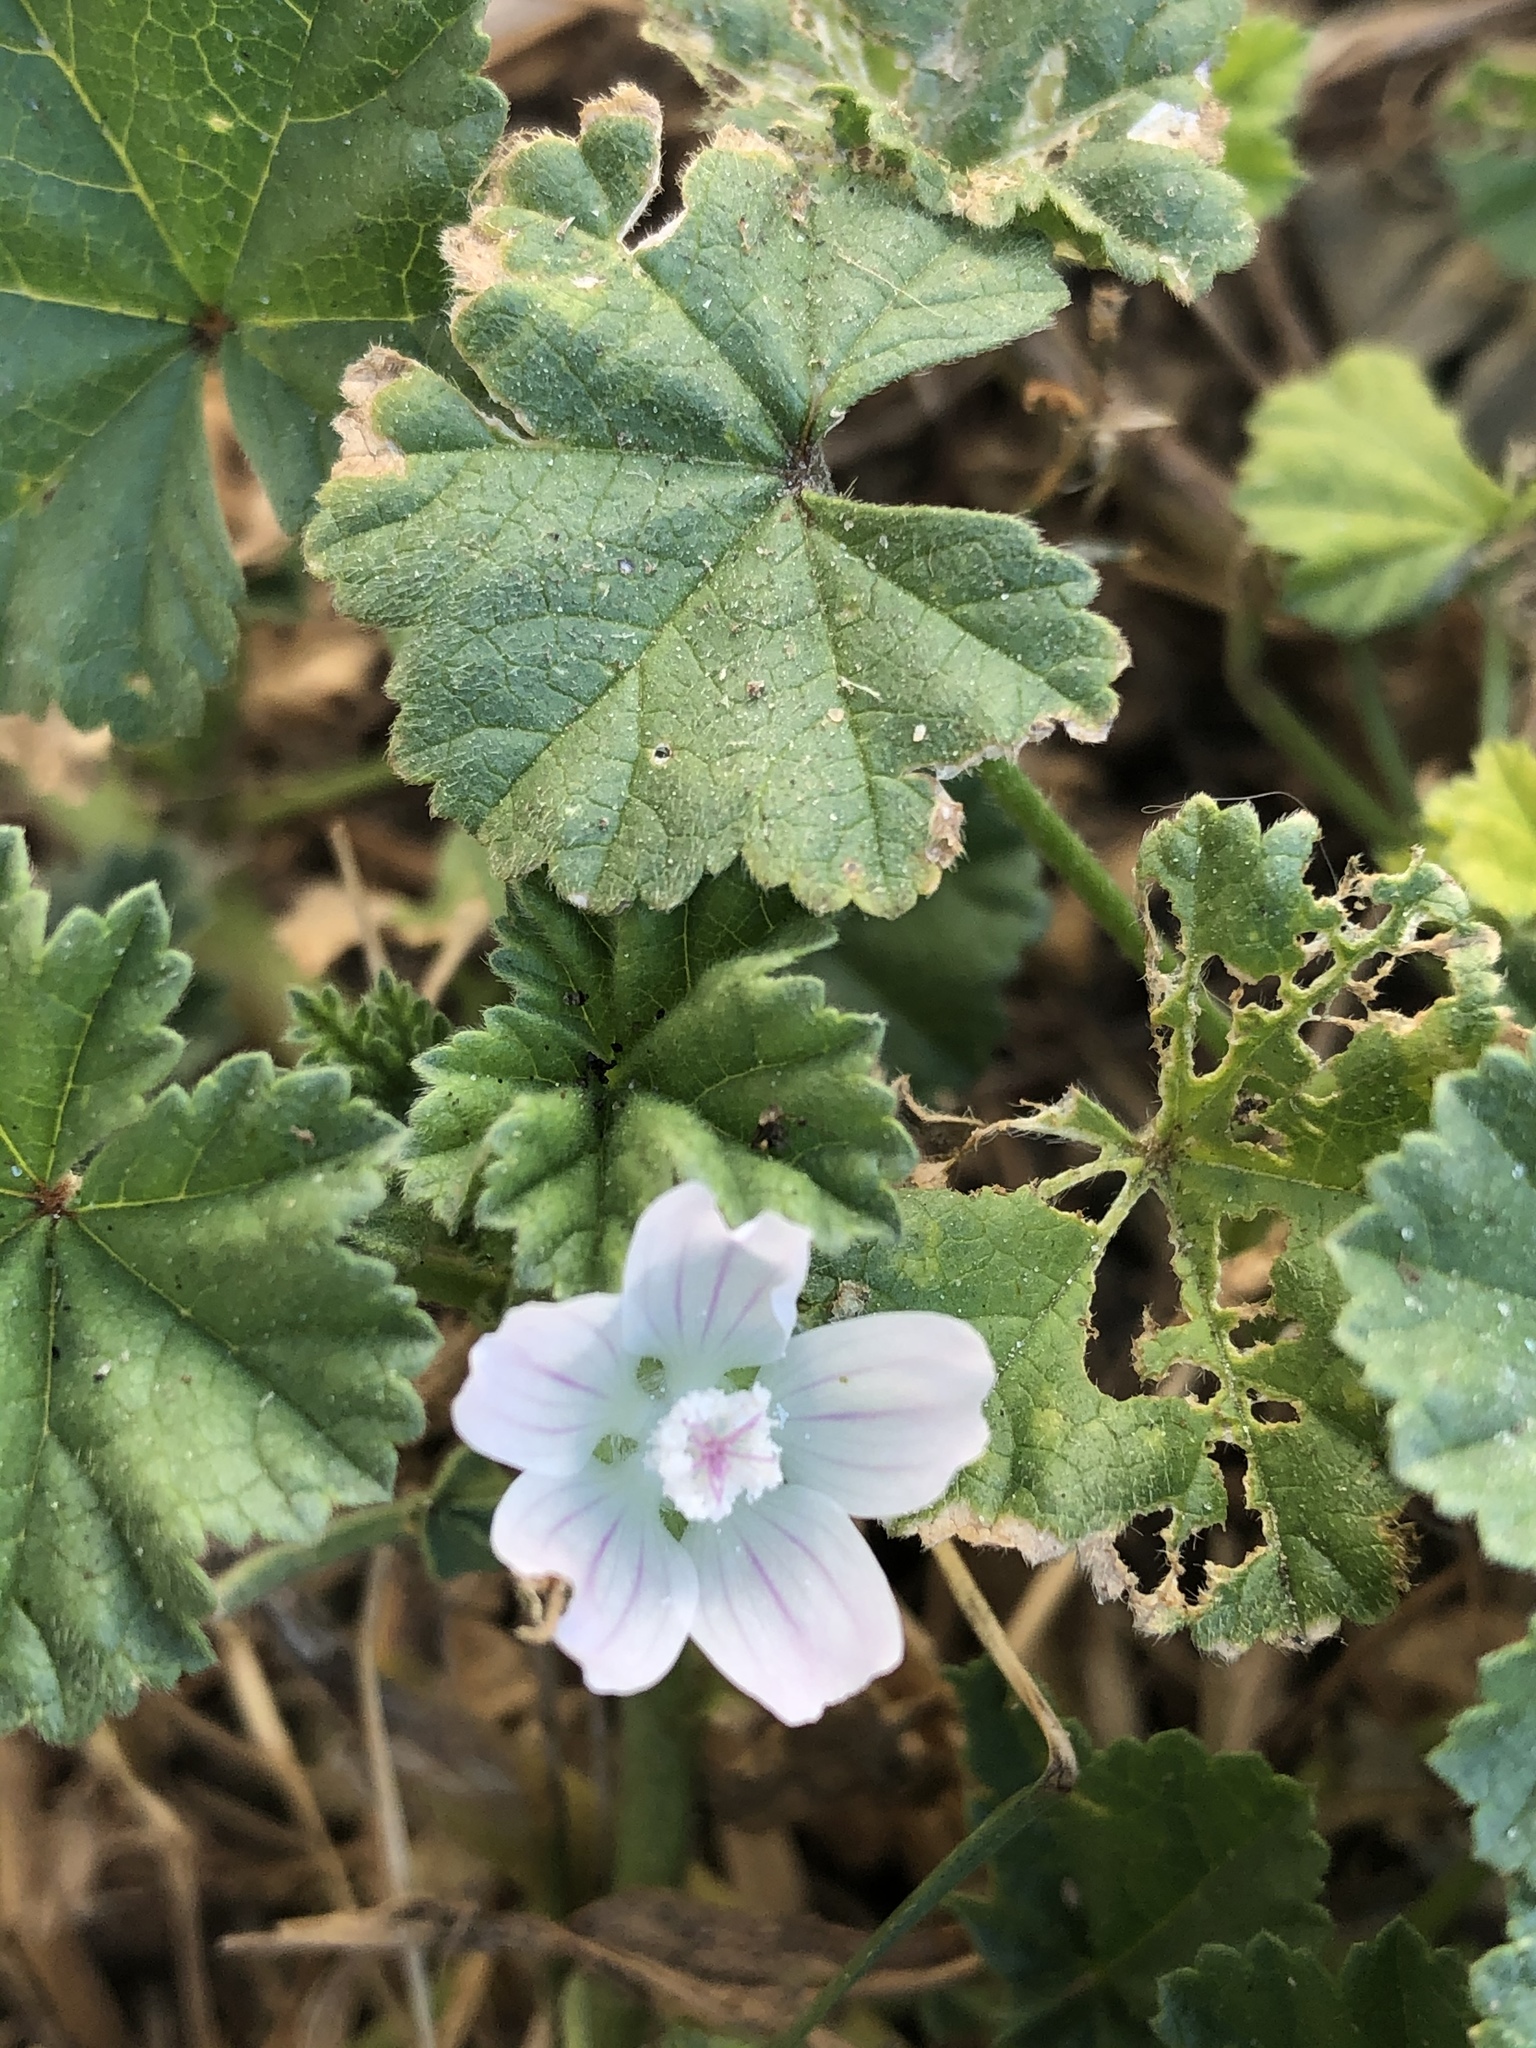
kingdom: Plantae
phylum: Tracheophyta
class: Magnoliopsida
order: Malvales
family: Malvaceae
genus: Malva
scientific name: Malva parviflora
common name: Least mallow
